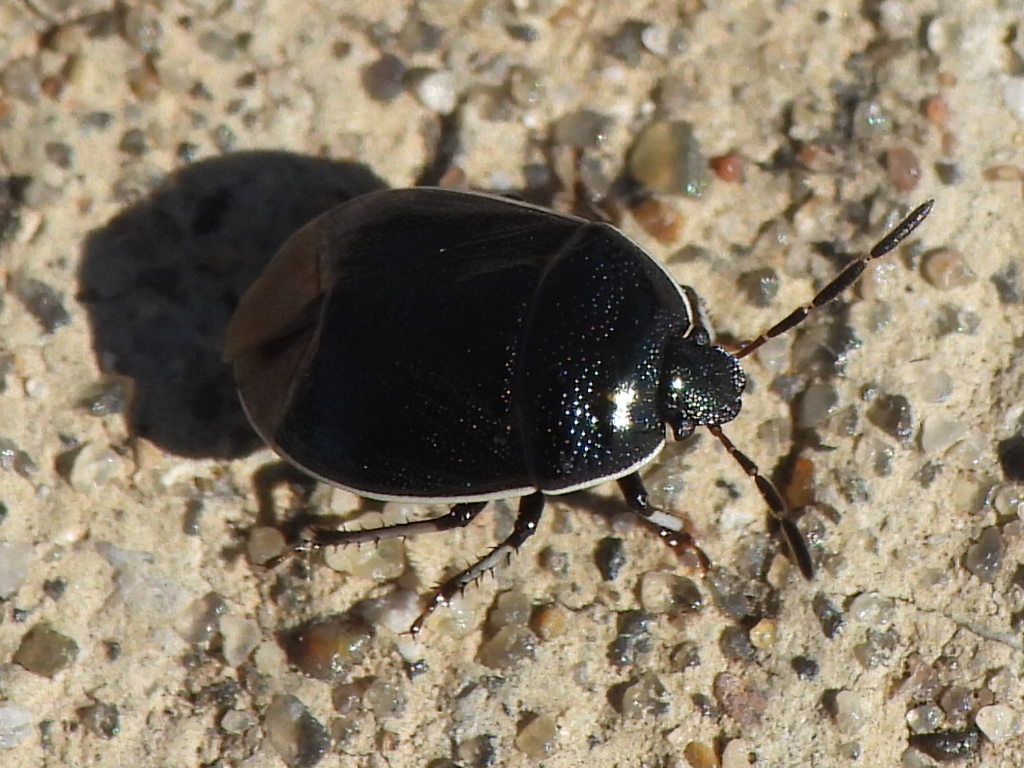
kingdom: Animalia
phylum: Arthropoda
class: Insecta
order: Hemiptera
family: Cydnidae
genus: Sehirus
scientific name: Sehirus cinctus
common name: White-margined burrower bug
